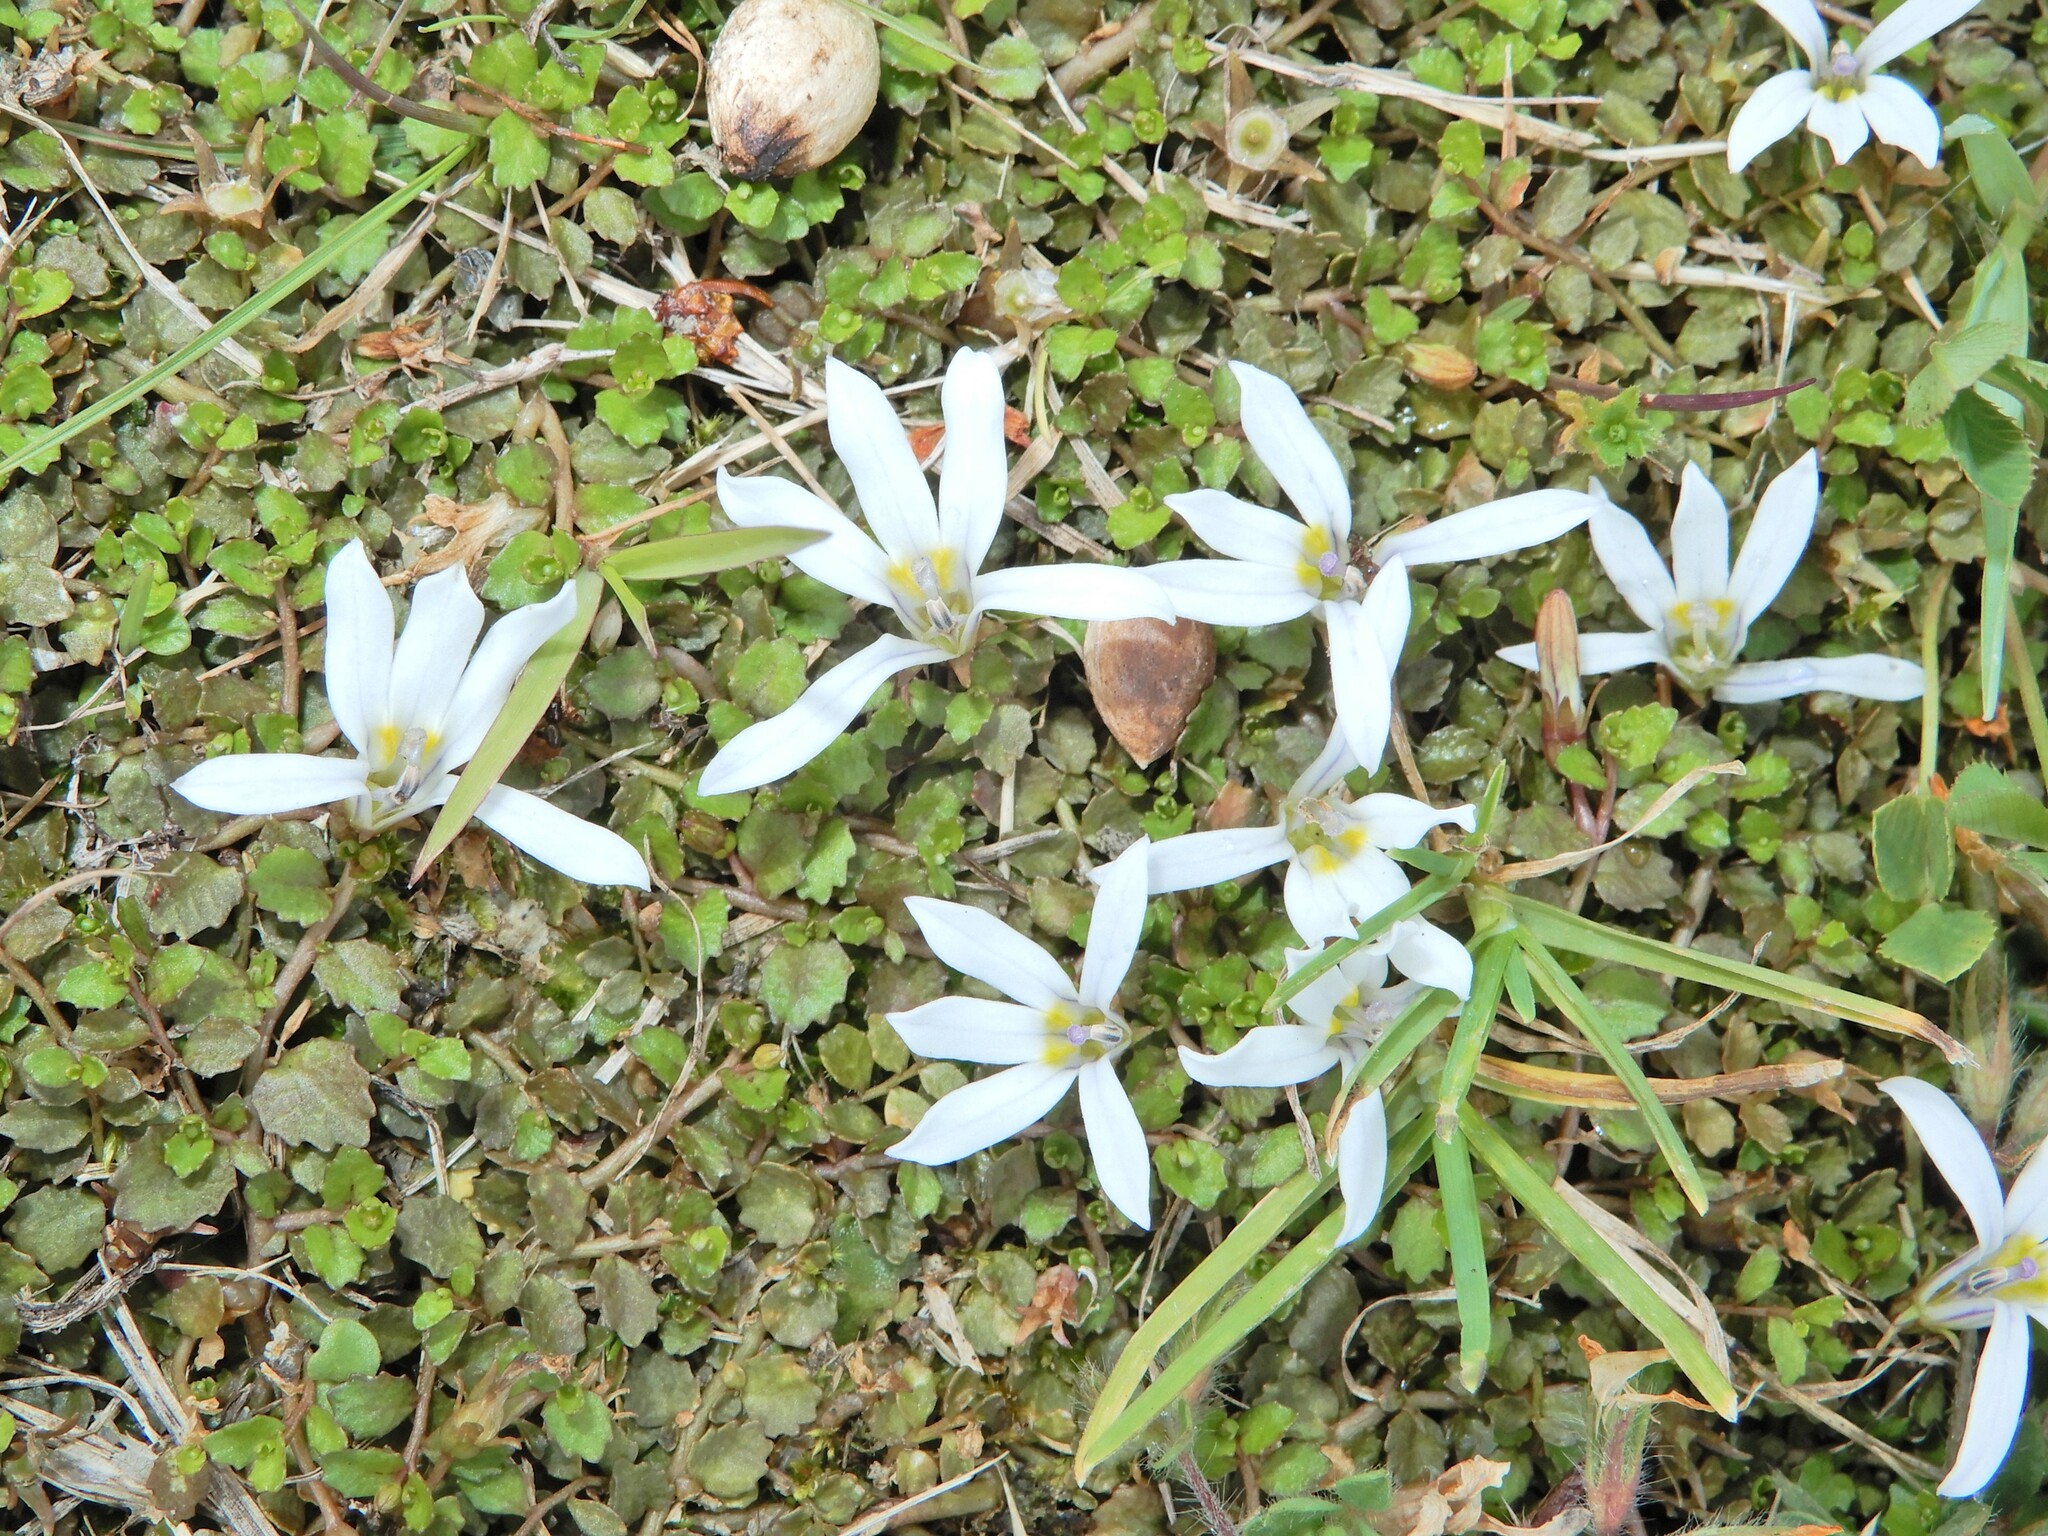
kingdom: Plantae
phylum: Tracheophyta
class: Magnoliopsida
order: Asterales
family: Campanulaceae
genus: Lobelia
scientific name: Lobelia angulata
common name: Lawn lobelia
